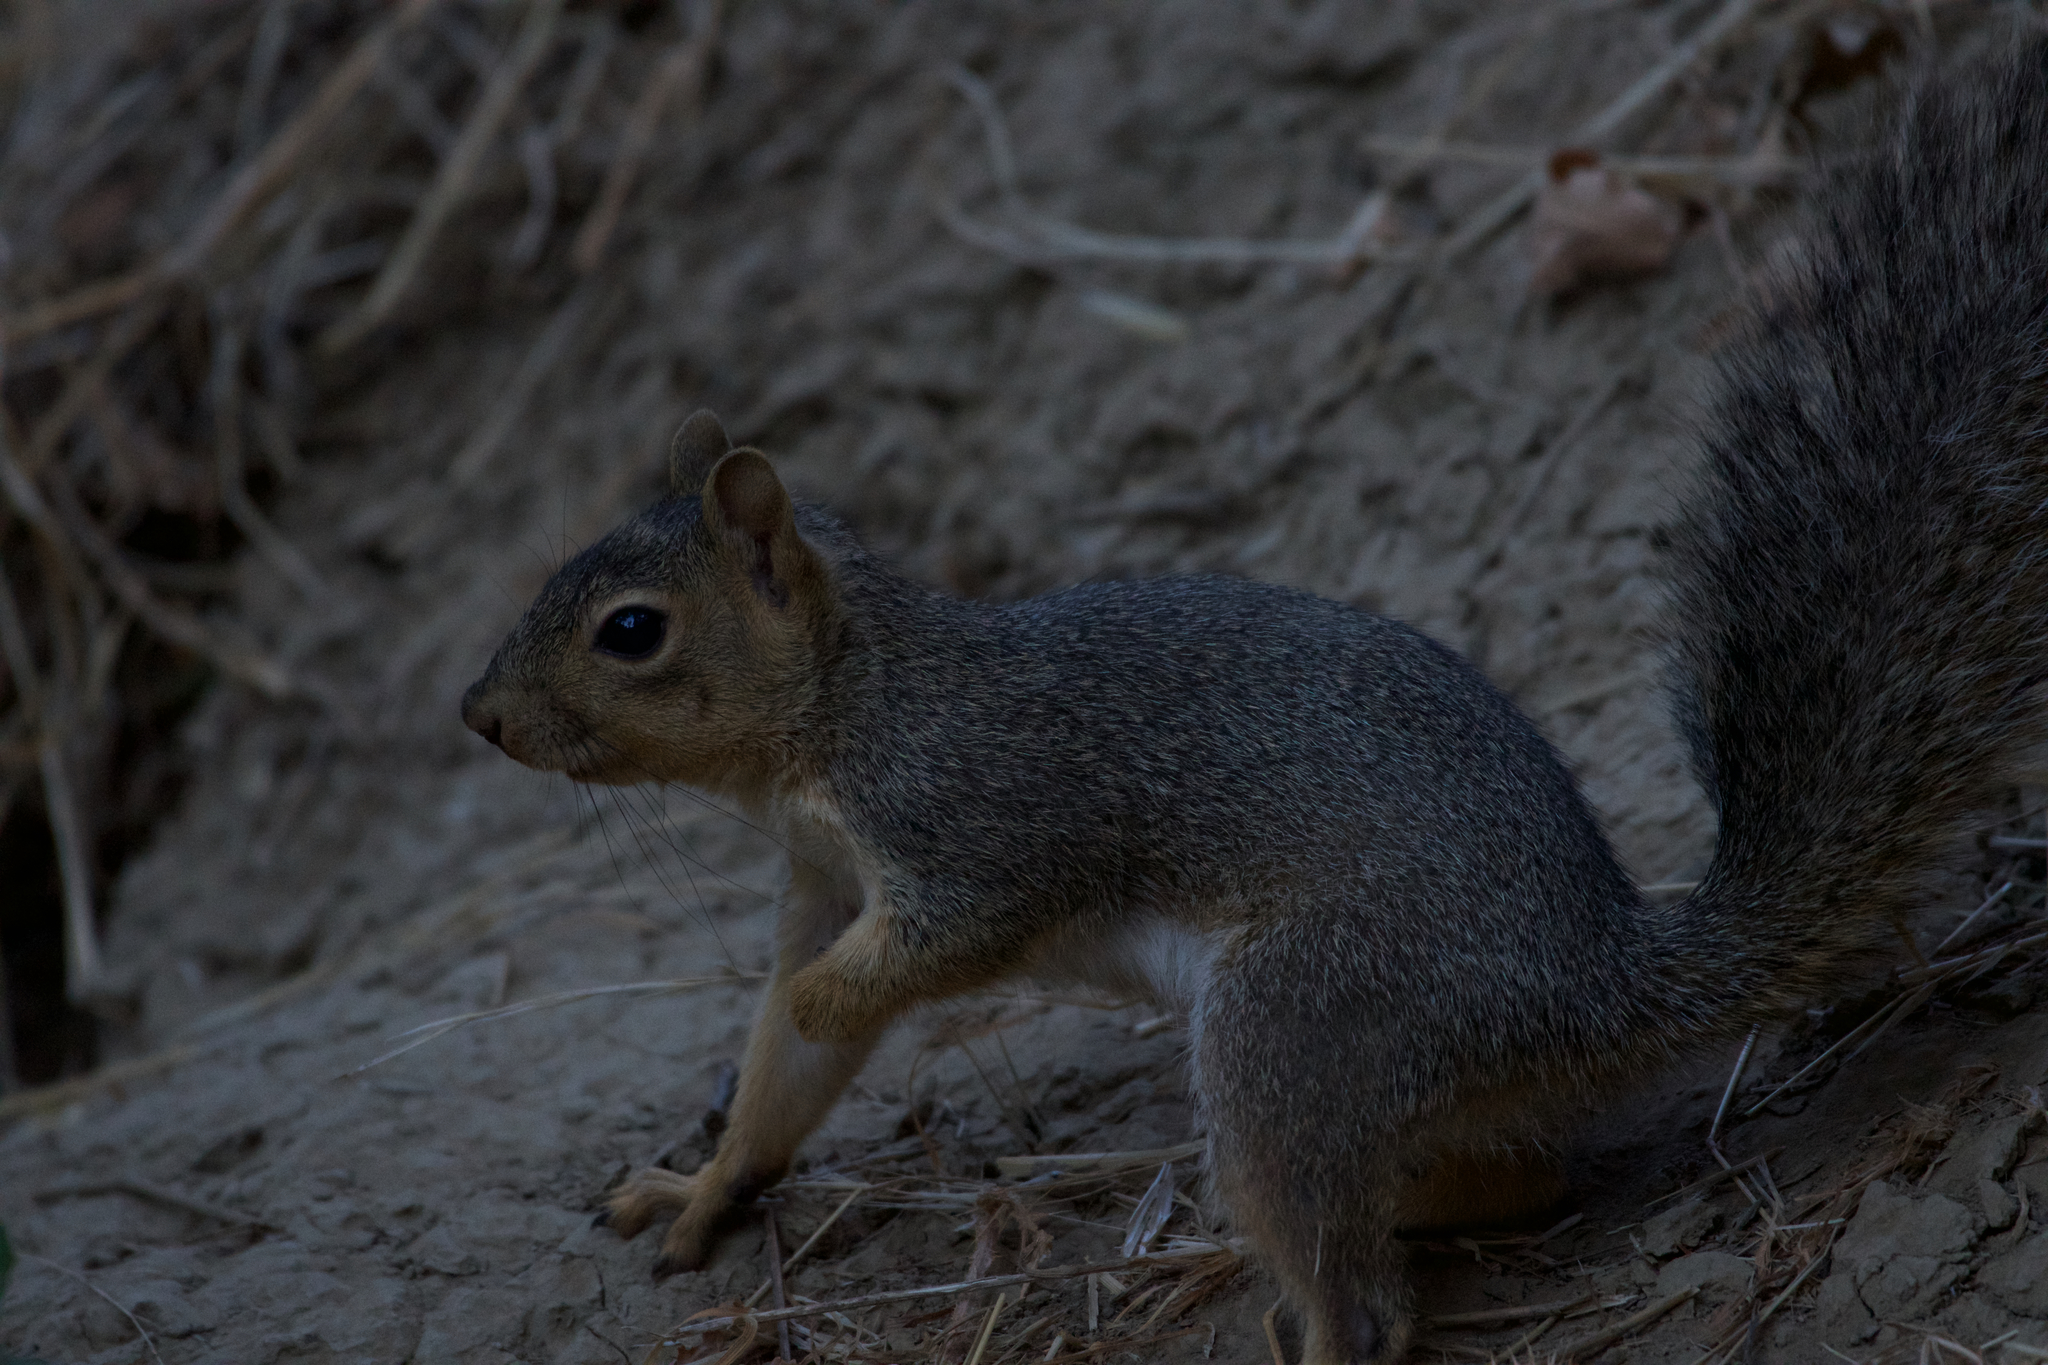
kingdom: Animalia
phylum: Chordata
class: Mammalia
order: Rodentia
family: Sciuridae
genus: Sciurus
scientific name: Sciurus niger
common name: Fox squirrel
